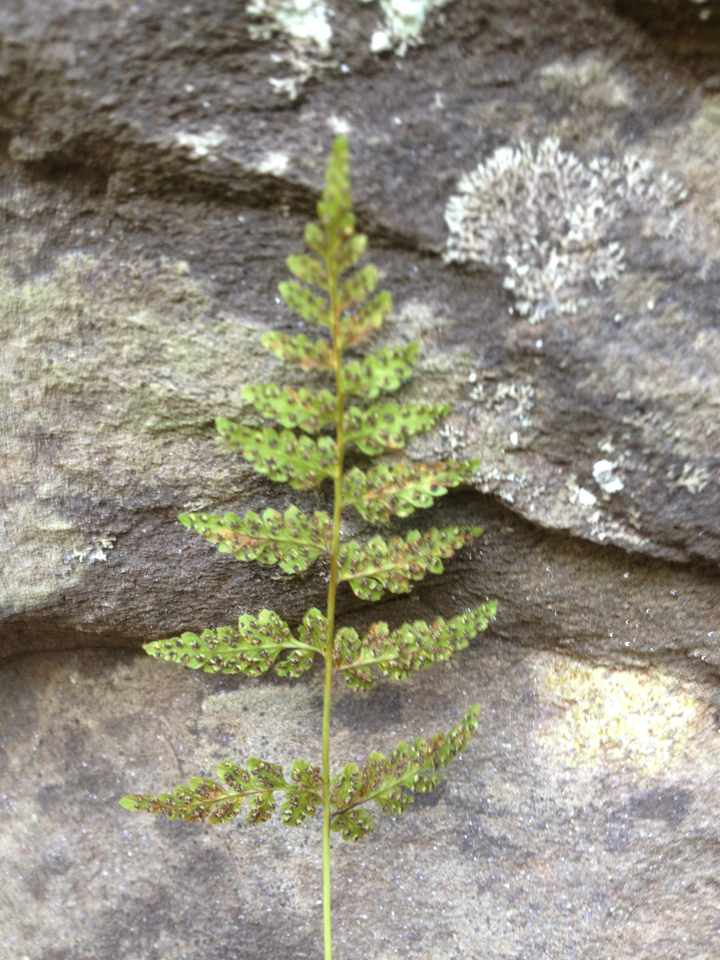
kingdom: Plantae
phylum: Tracheophyta
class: Polypodiopsida
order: Polypodiales
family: Cystopteridaceae
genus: Cystopteris
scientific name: Cystopteris bulbifera
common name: Bulblet bladder fern
